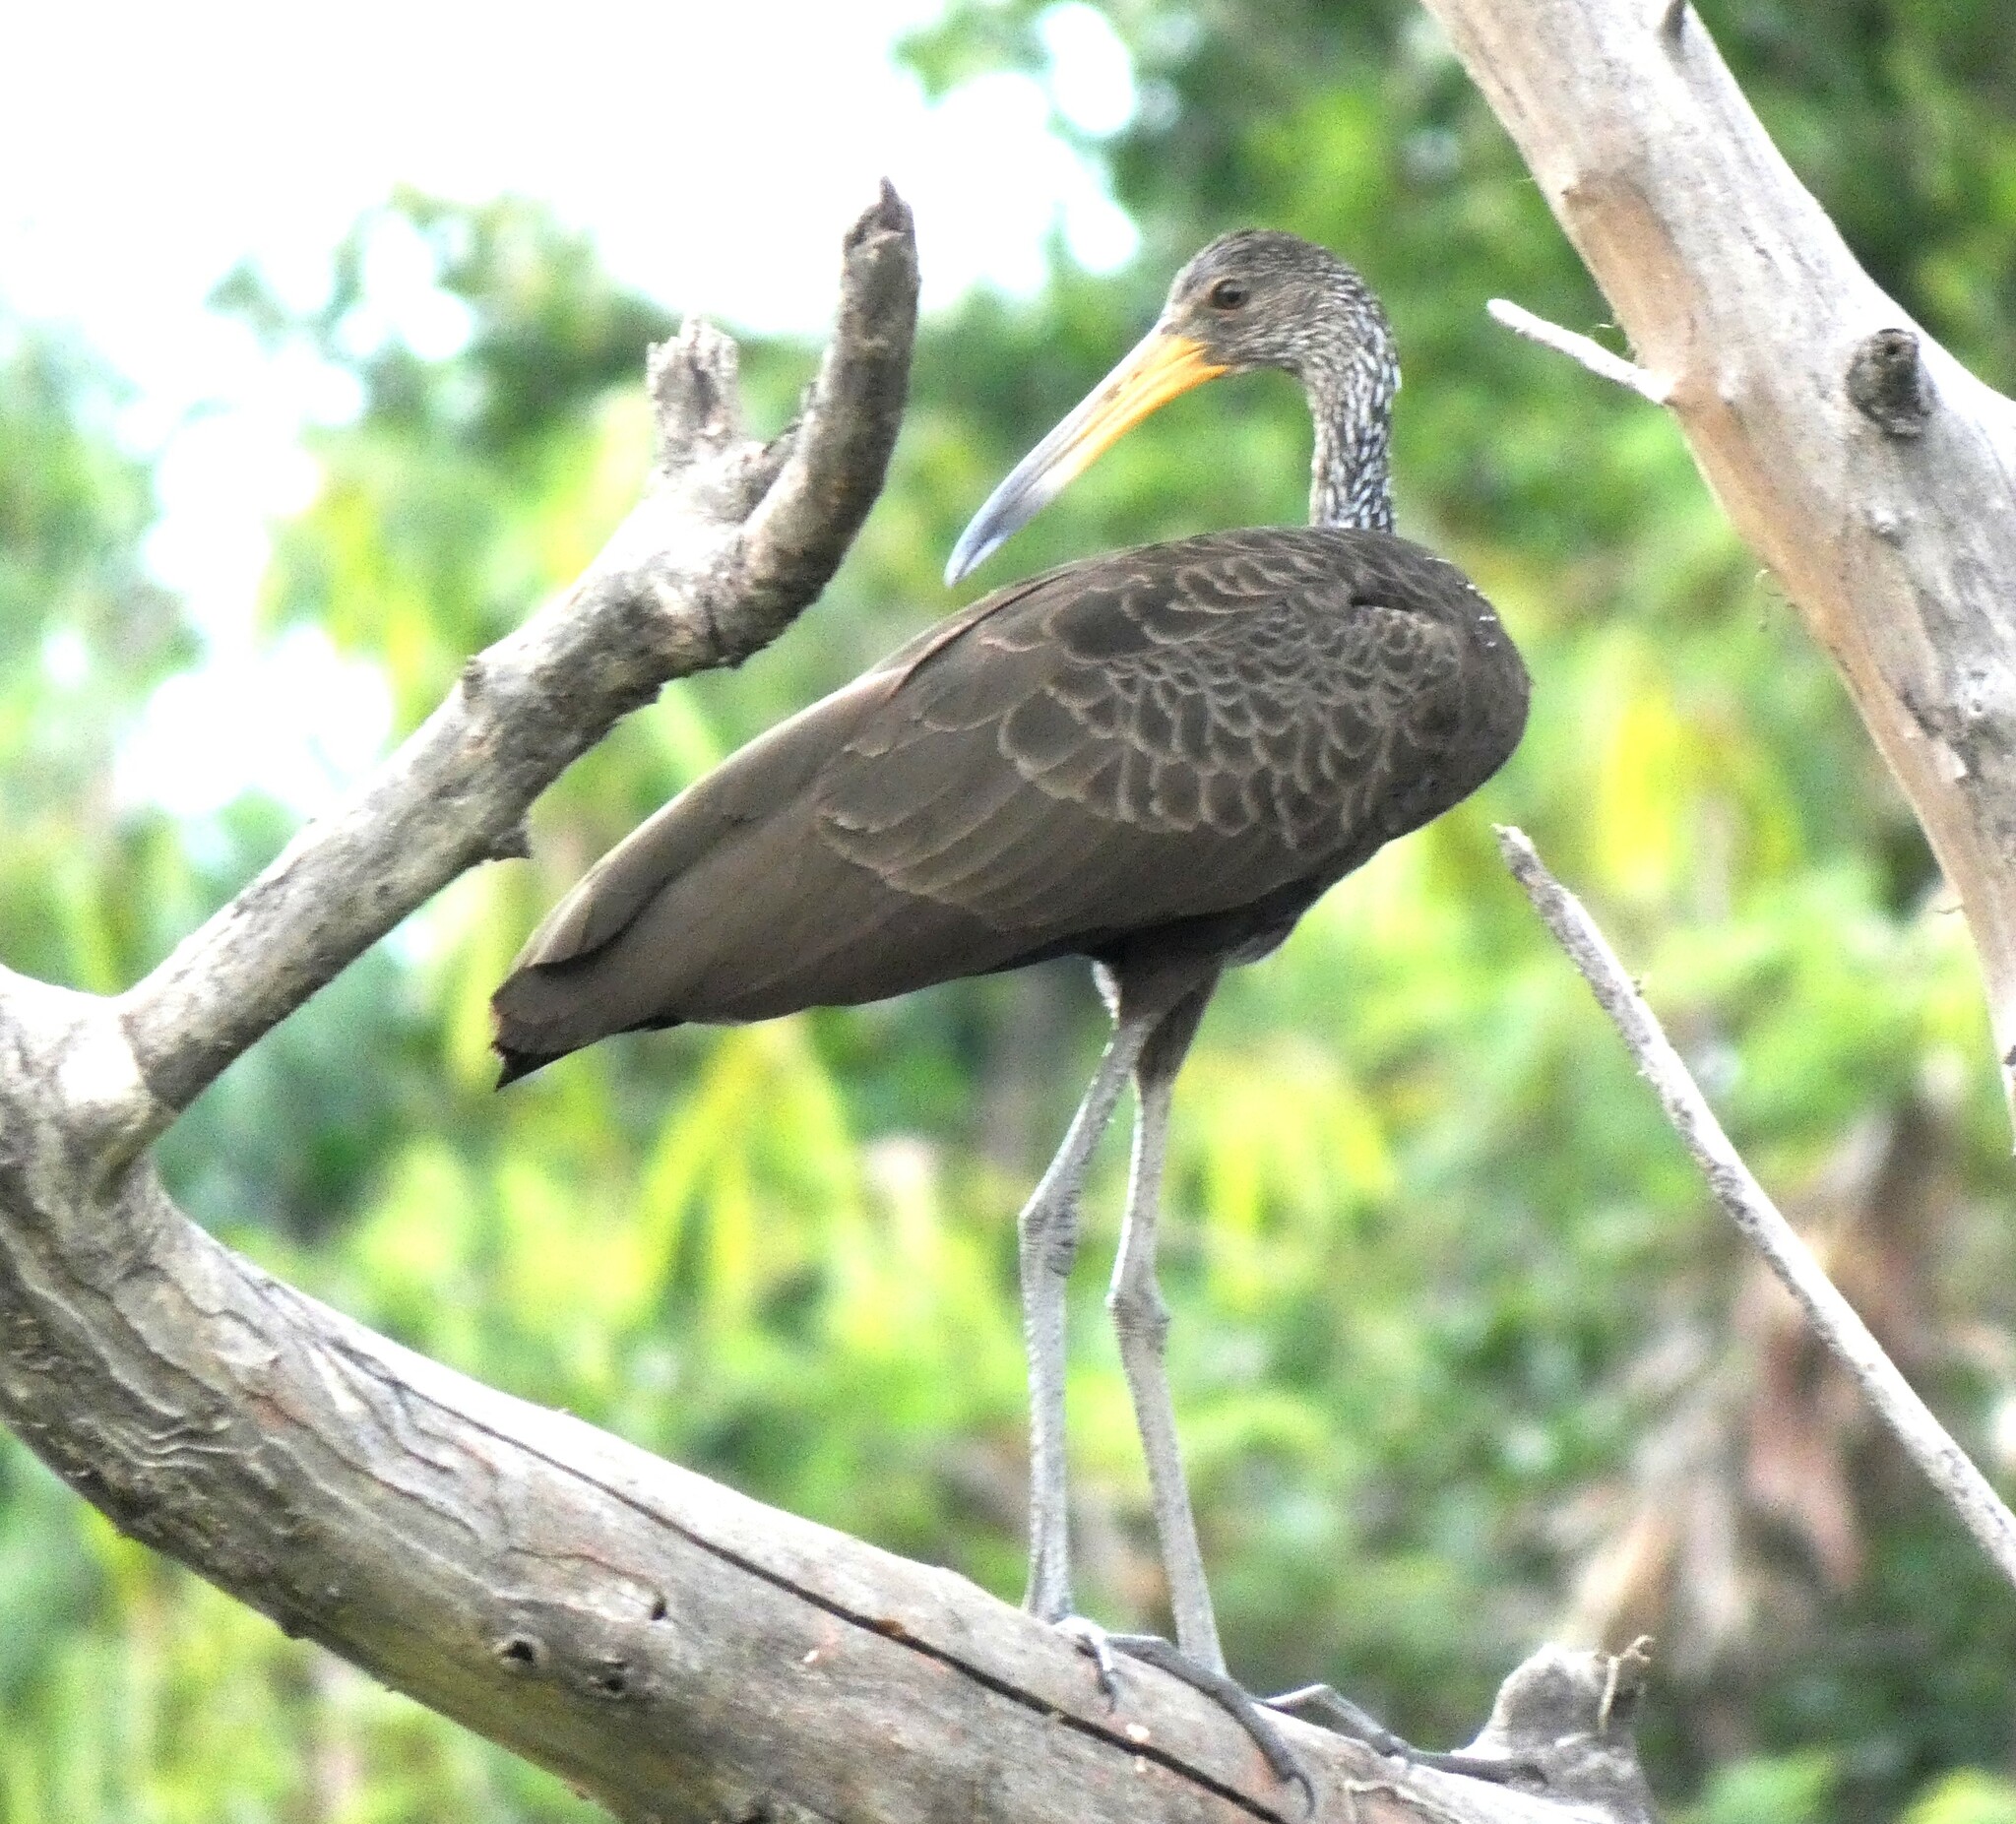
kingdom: Animalia
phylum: Chordata
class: Aves
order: Gruiformes
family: Aramidae
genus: Aramus
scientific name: Aramus guarauna
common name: Limpkin
